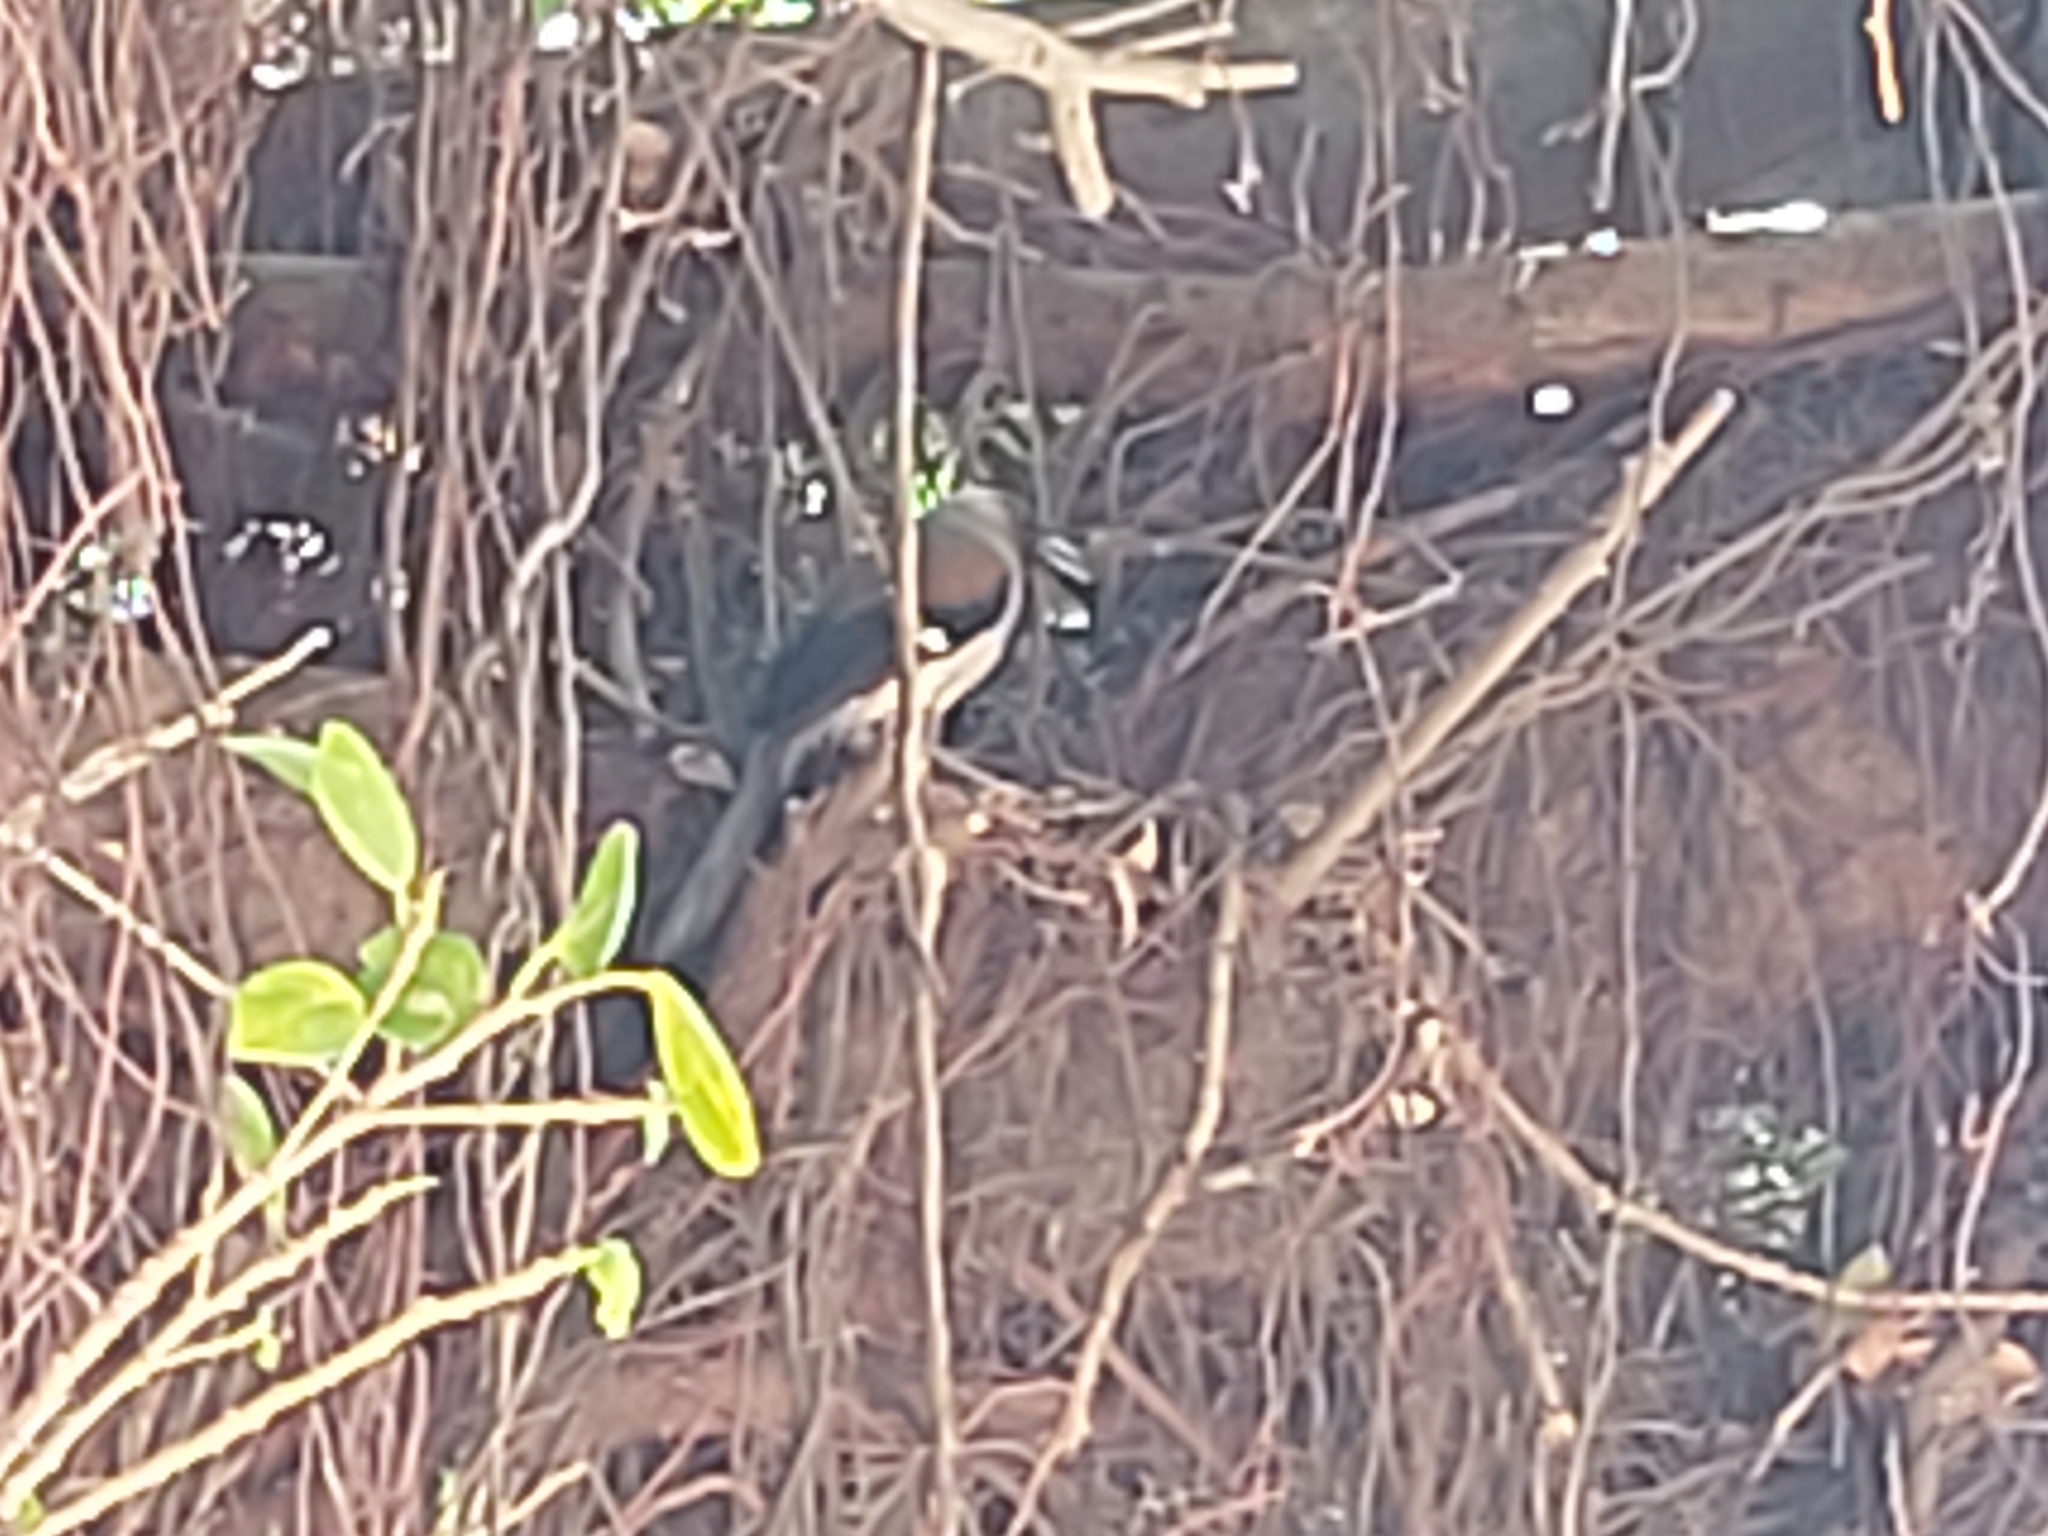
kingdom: Animalia
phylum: Chordata
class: Aves
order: Passeriformes
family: Corvidae
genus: Dendrocitta
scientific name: Dendrocitta formosae
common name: Grey treepie
